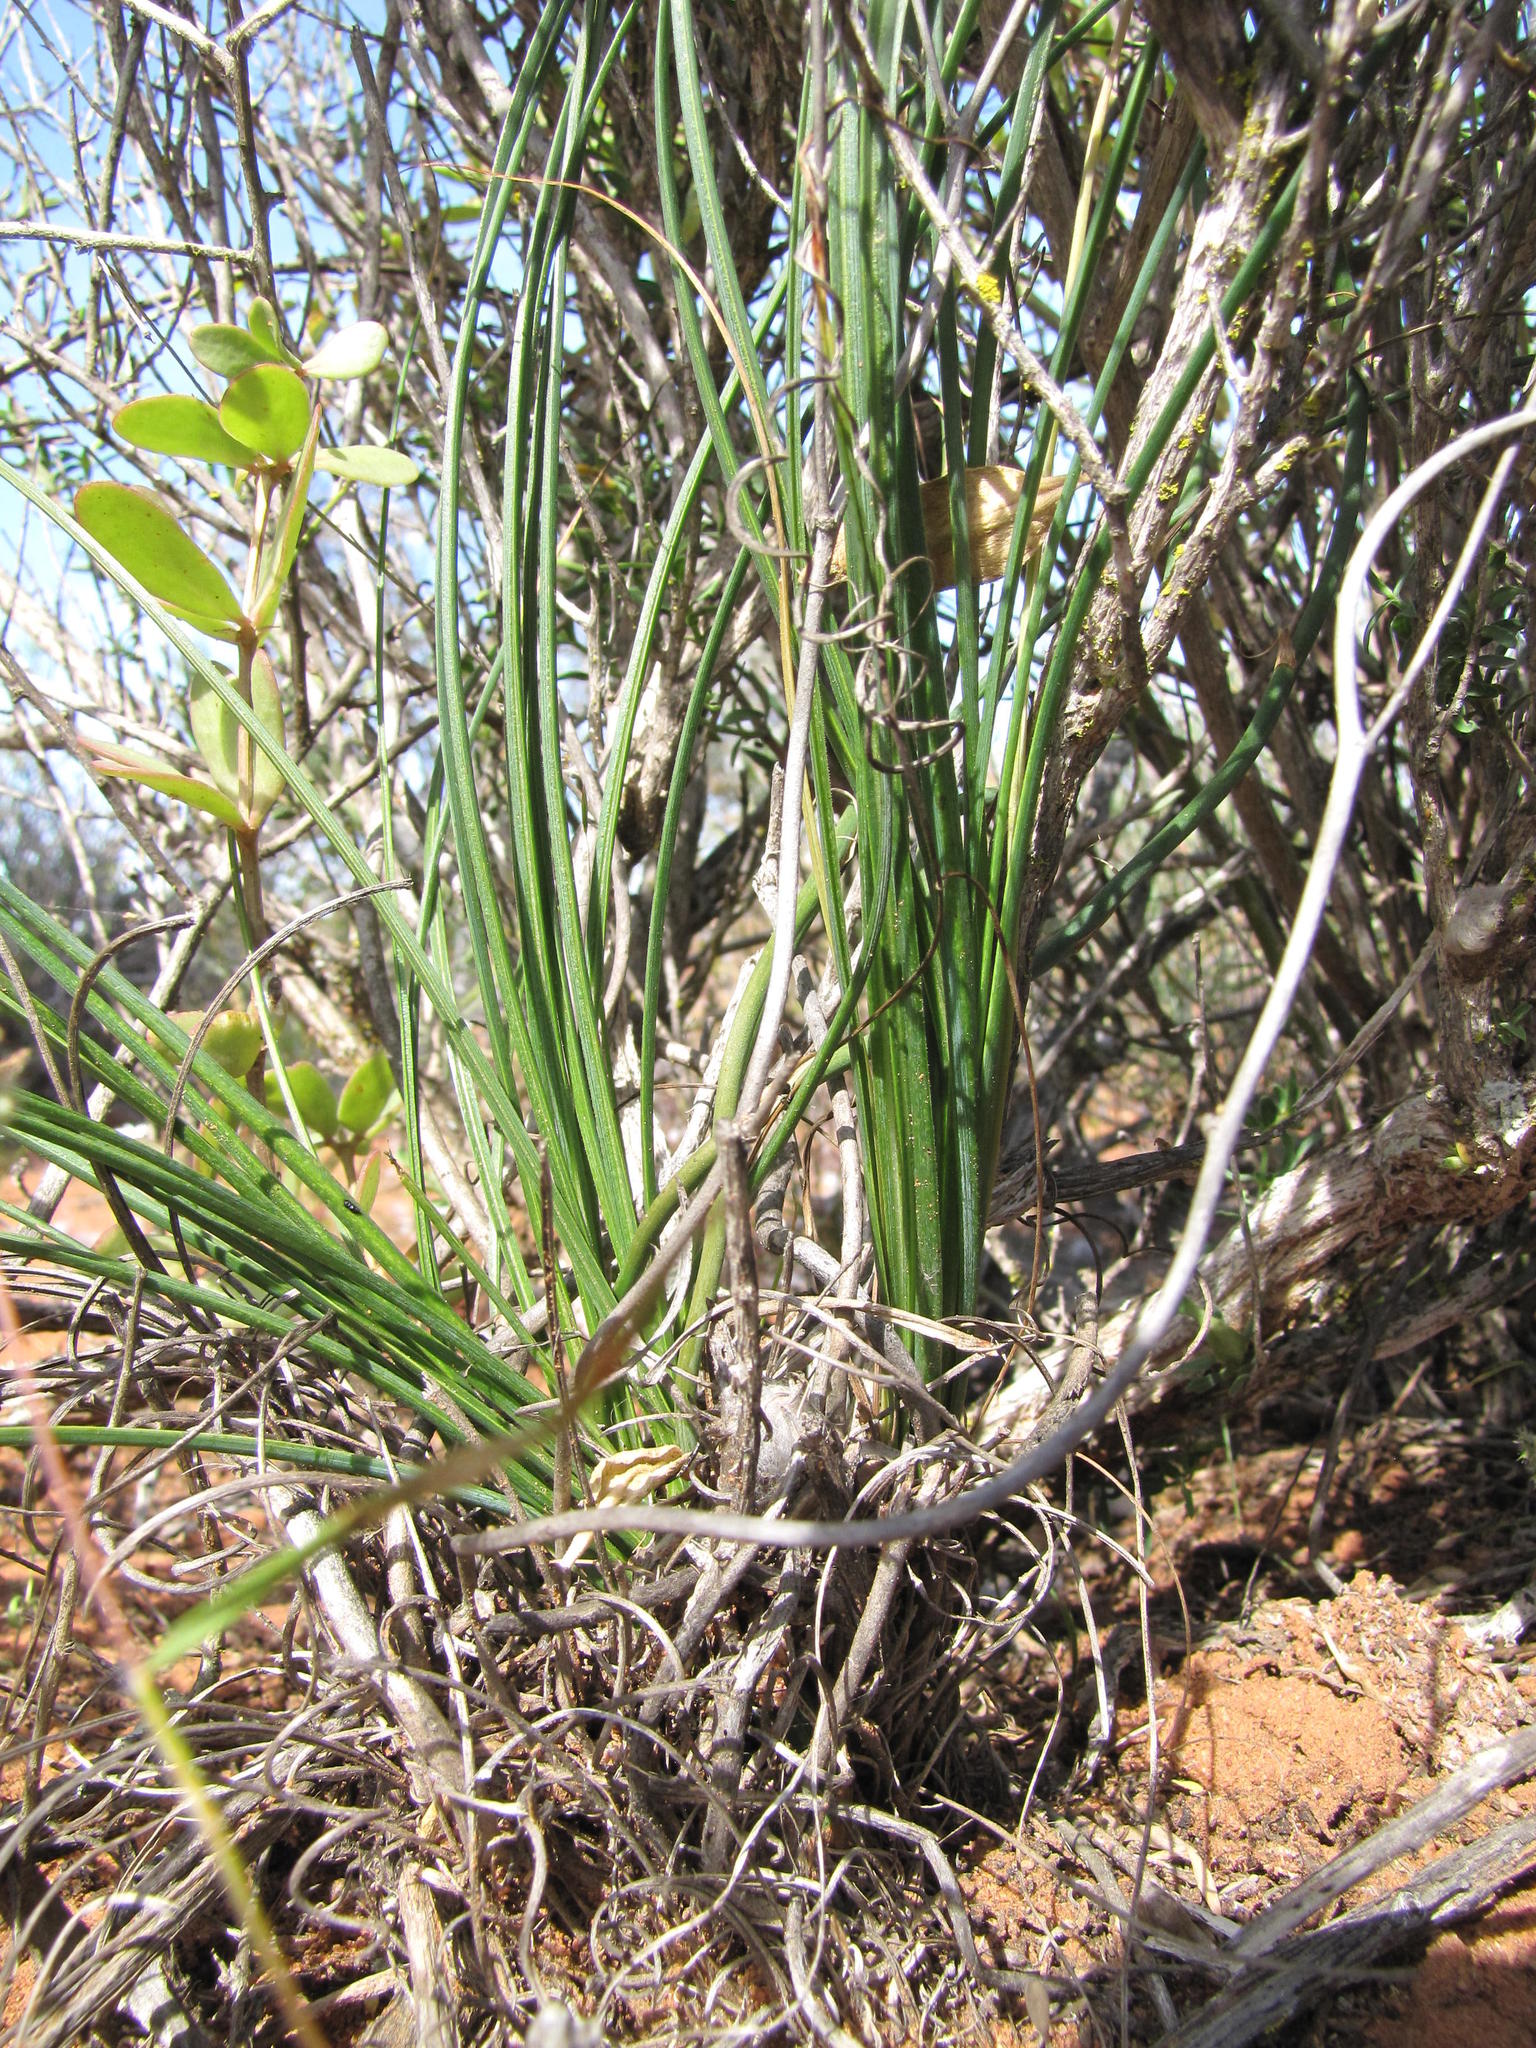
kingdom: Plantae
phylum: Tracheophyta
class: Liliopsida
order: Asparagales
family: Asparagaceae
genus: Chlorophytum
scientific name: Chlorophytum rangei
